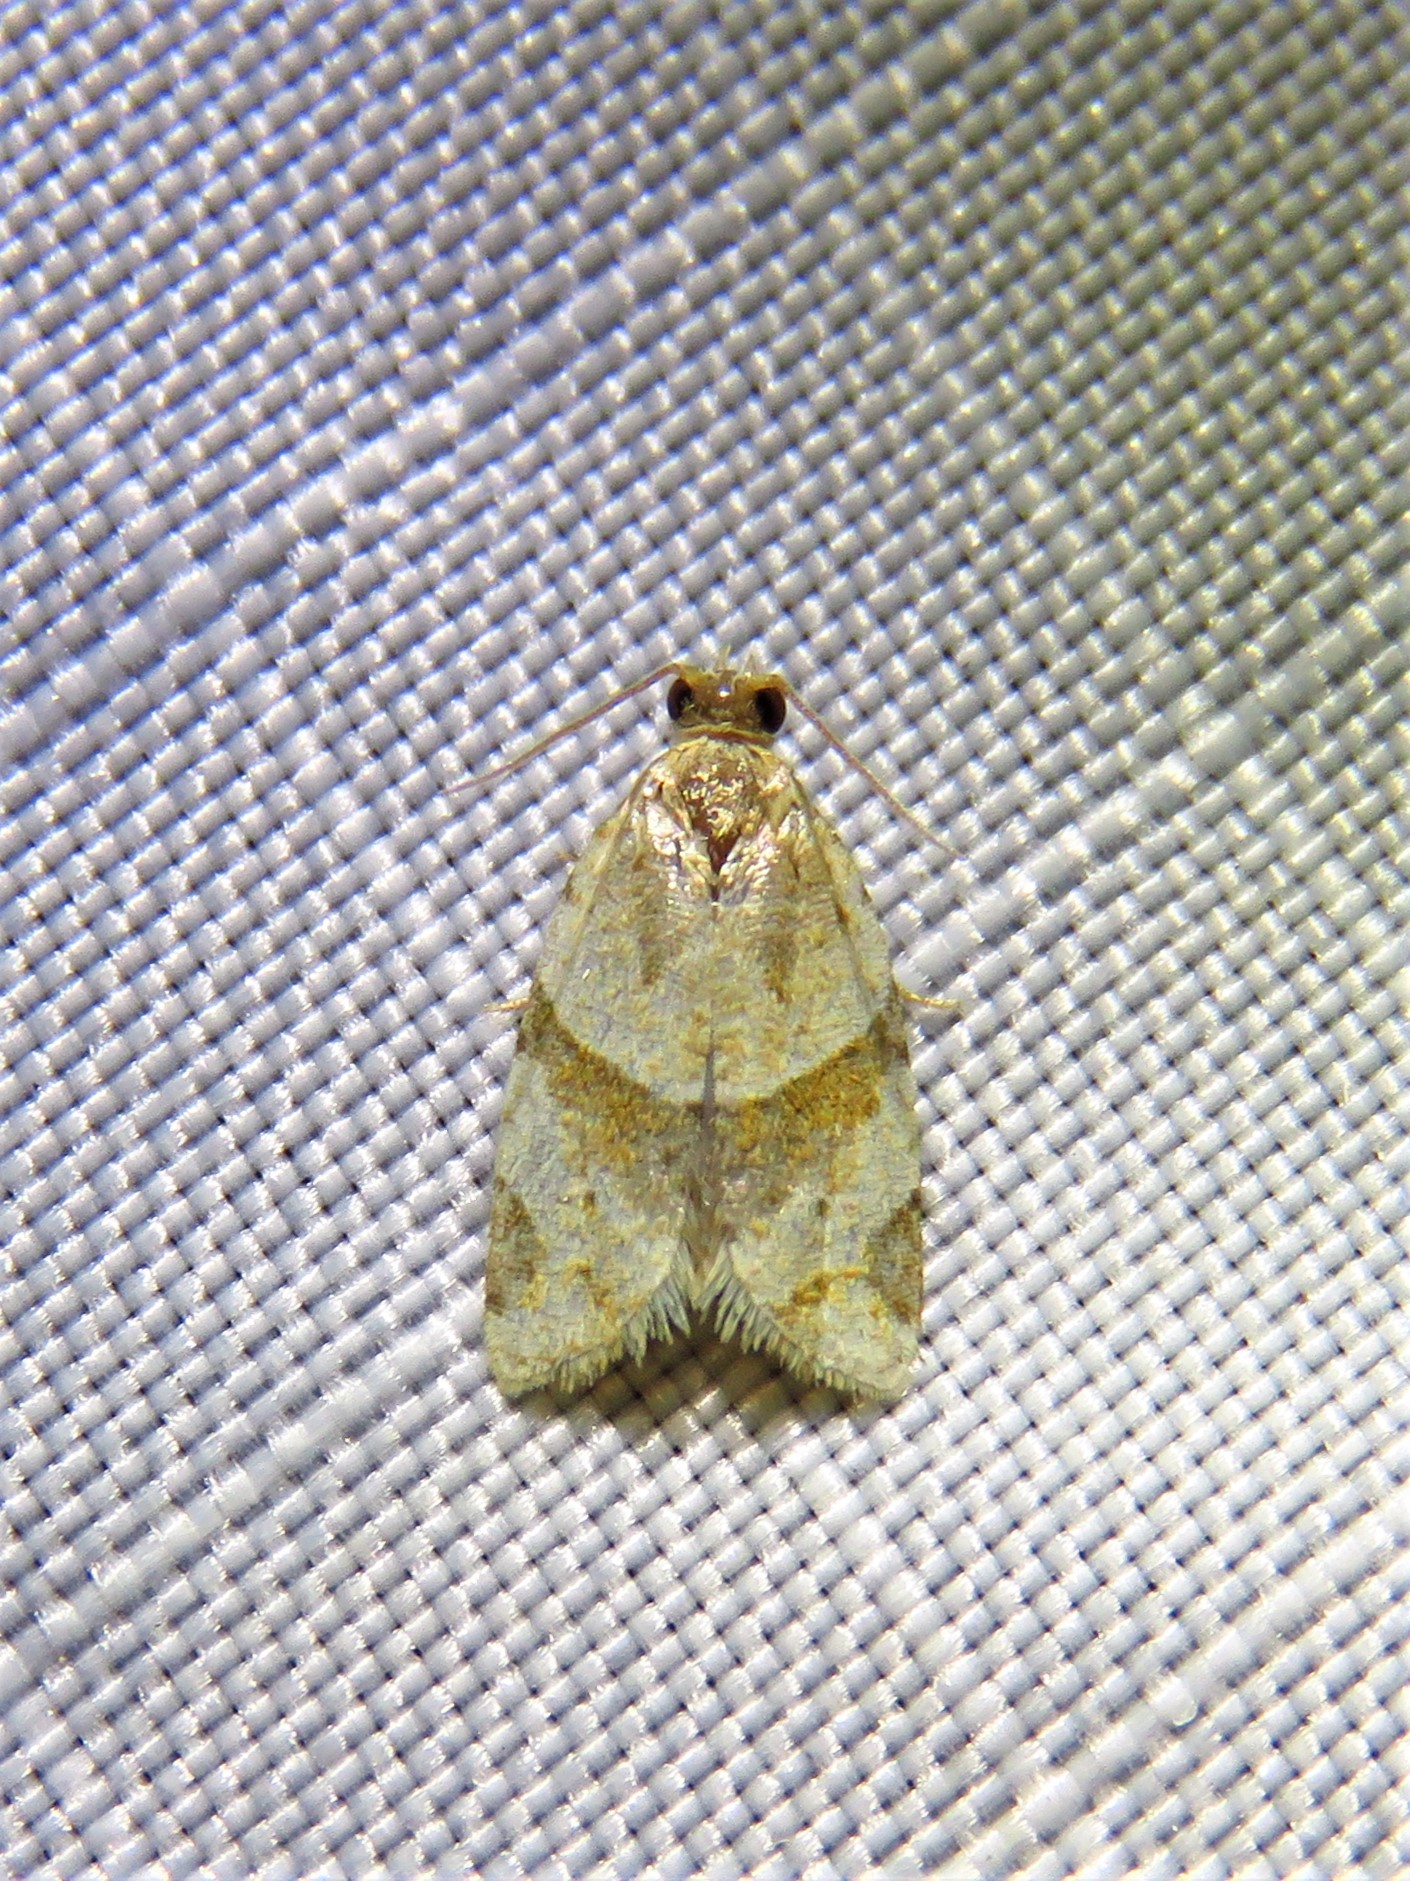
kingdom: Animalia
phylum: Arthropoda
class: Insecta
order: Lepidoptera
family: Tortricidae
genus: Clepsis
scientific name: Clepsis peritana
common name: Garden tortrix
